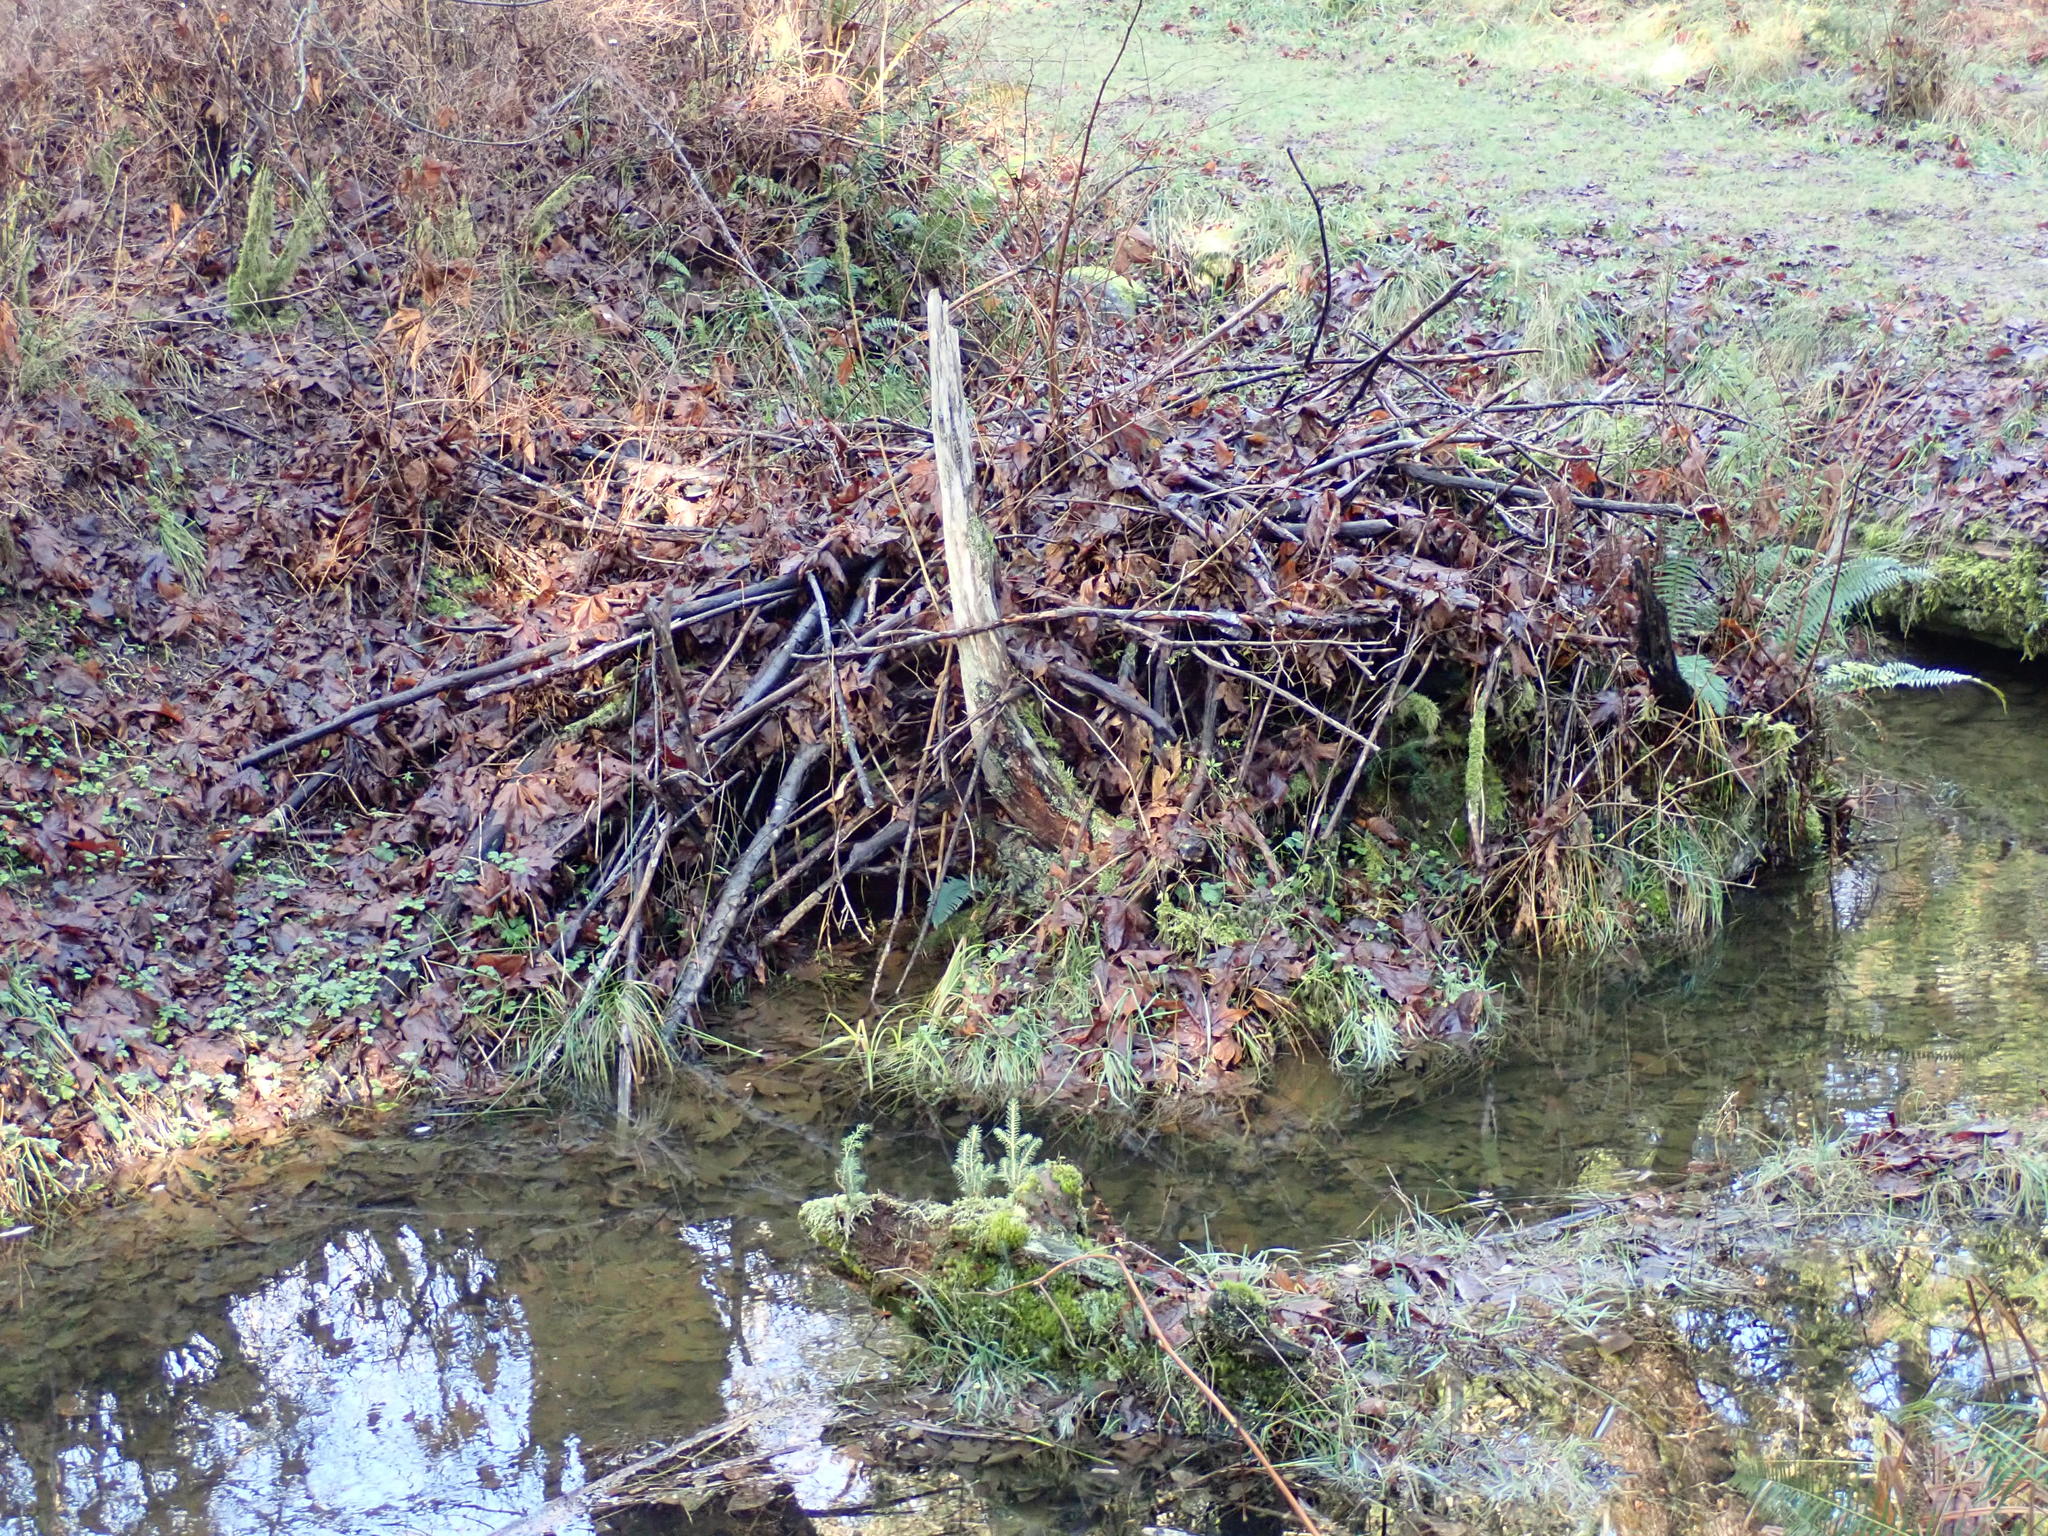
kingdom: Animalia
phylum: Chordata
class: Mammalia
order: Rodentia
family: Castoridae
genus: Castor
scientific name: Castor canadensis
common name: American beaver
